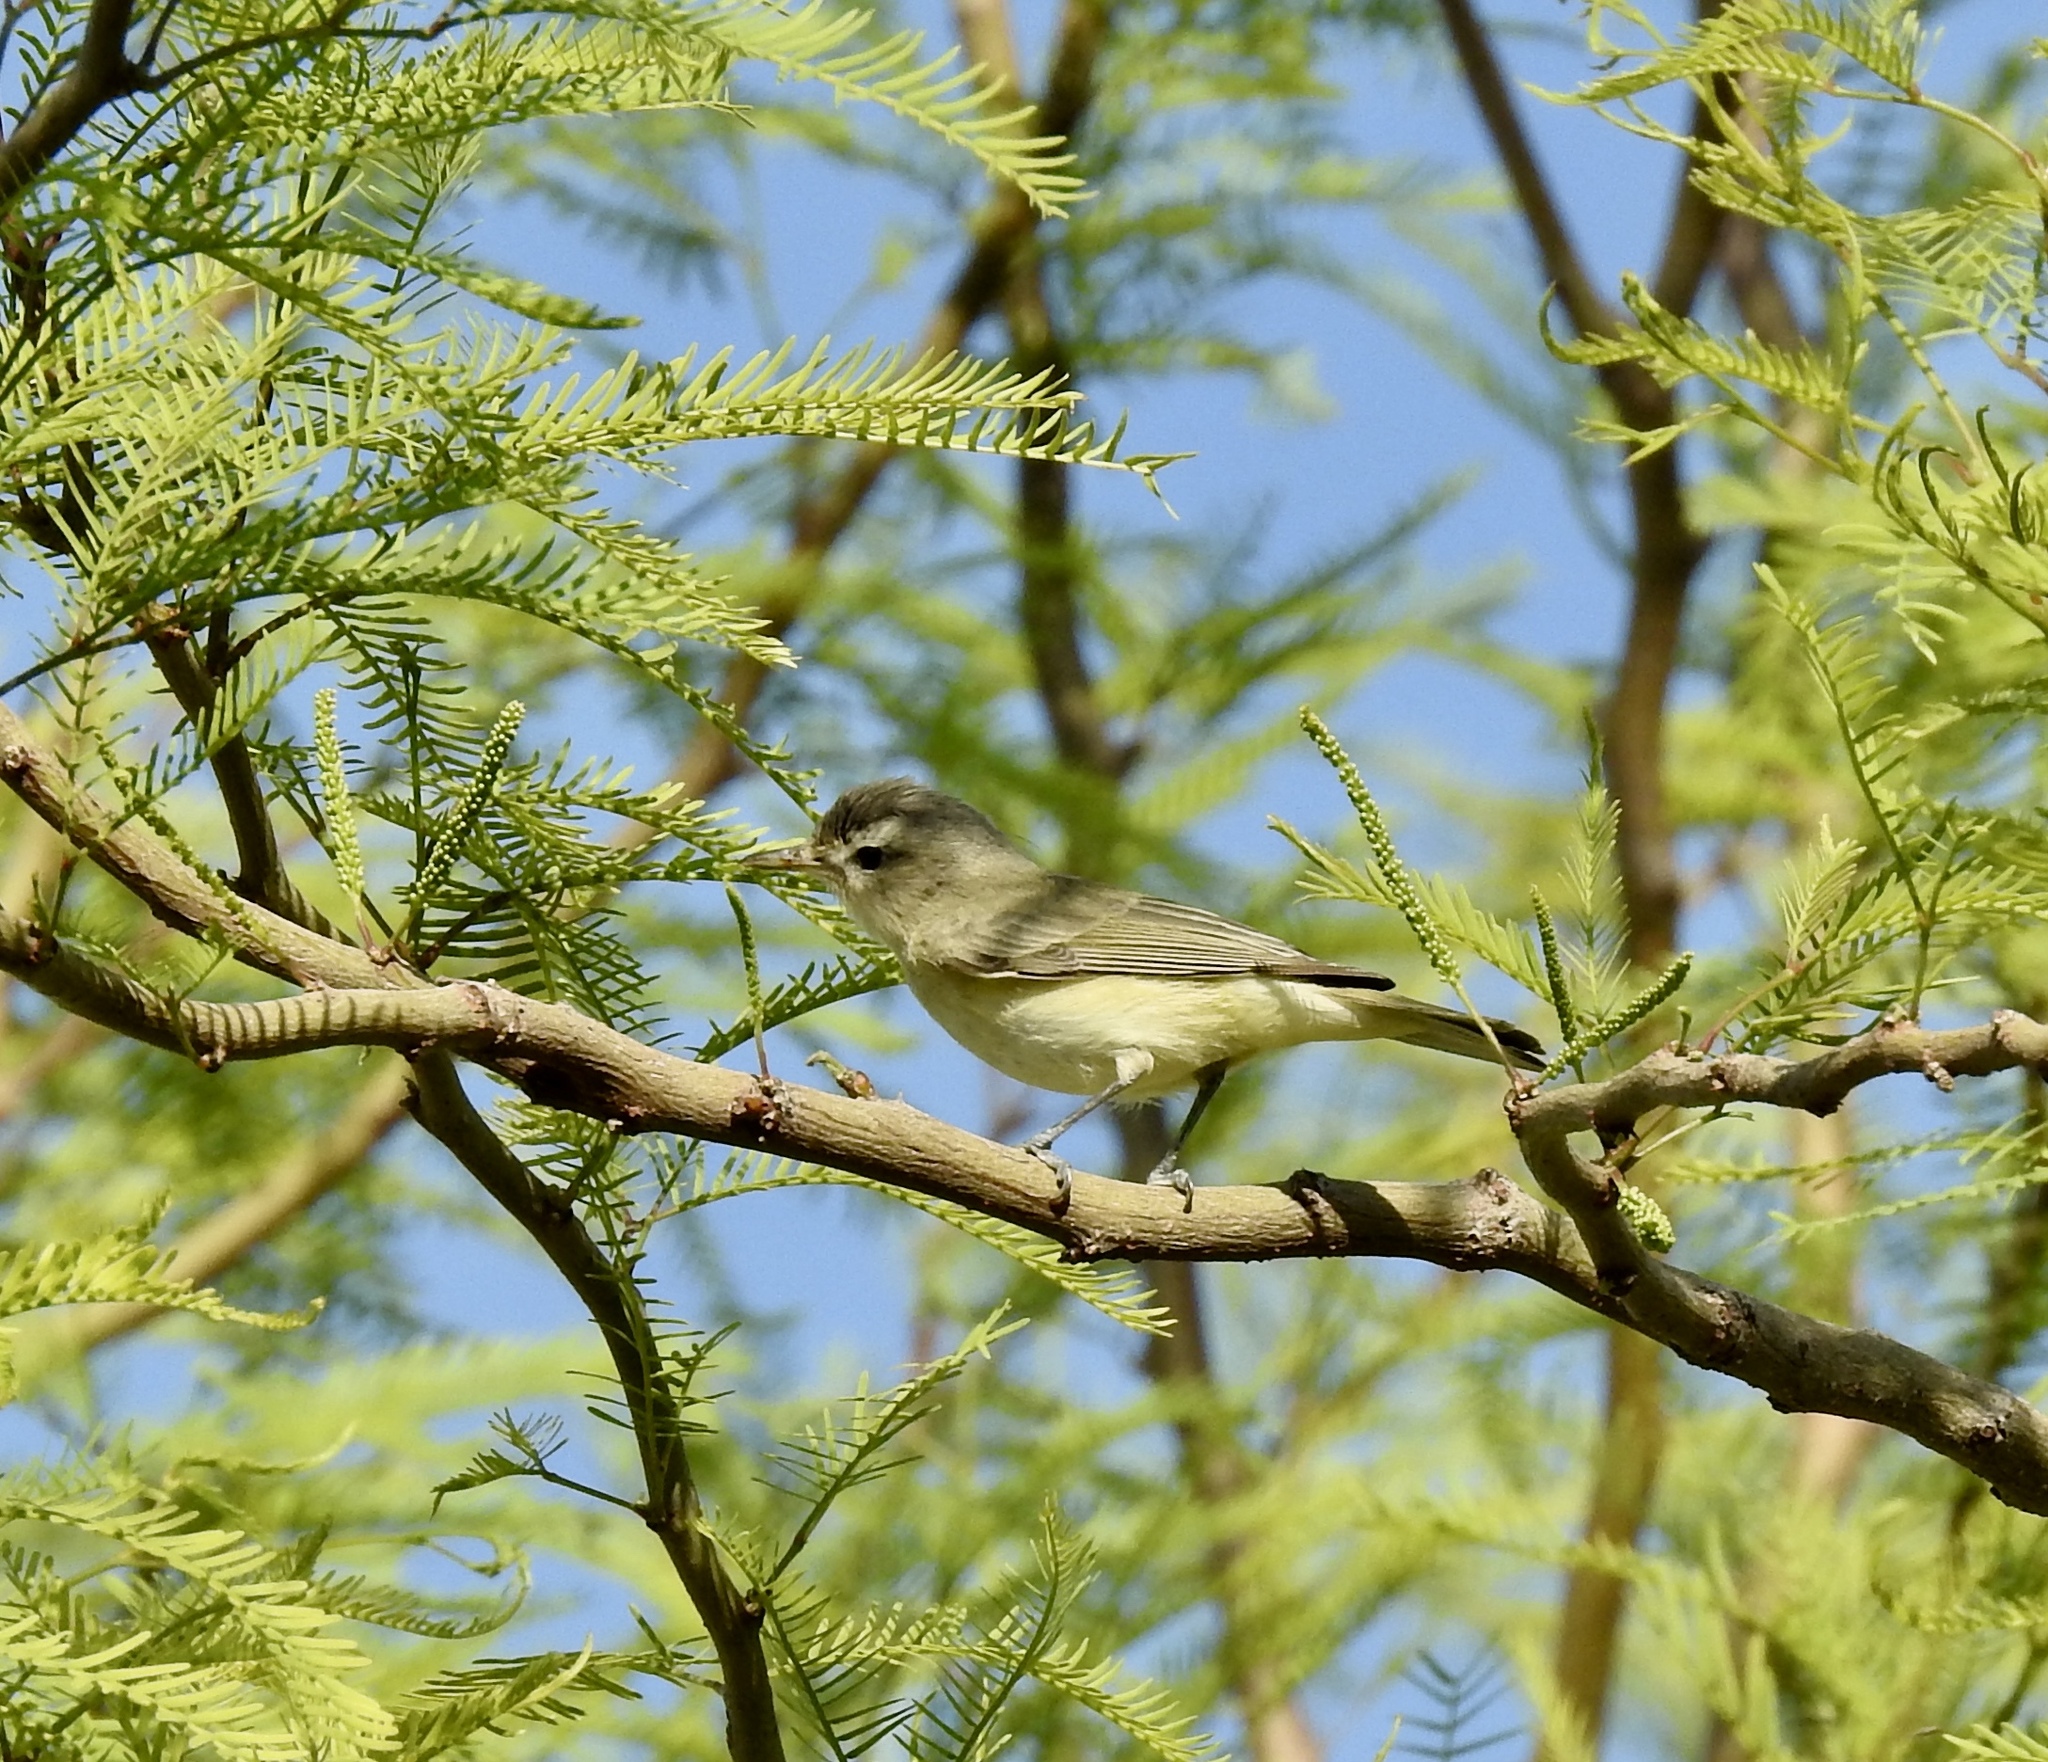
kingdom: Animalia
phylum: Chordata
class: Aves
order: Passeriformes
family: Vireonidae
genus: Vireo
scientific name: Vireo gilvus
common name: Warbling vireo
